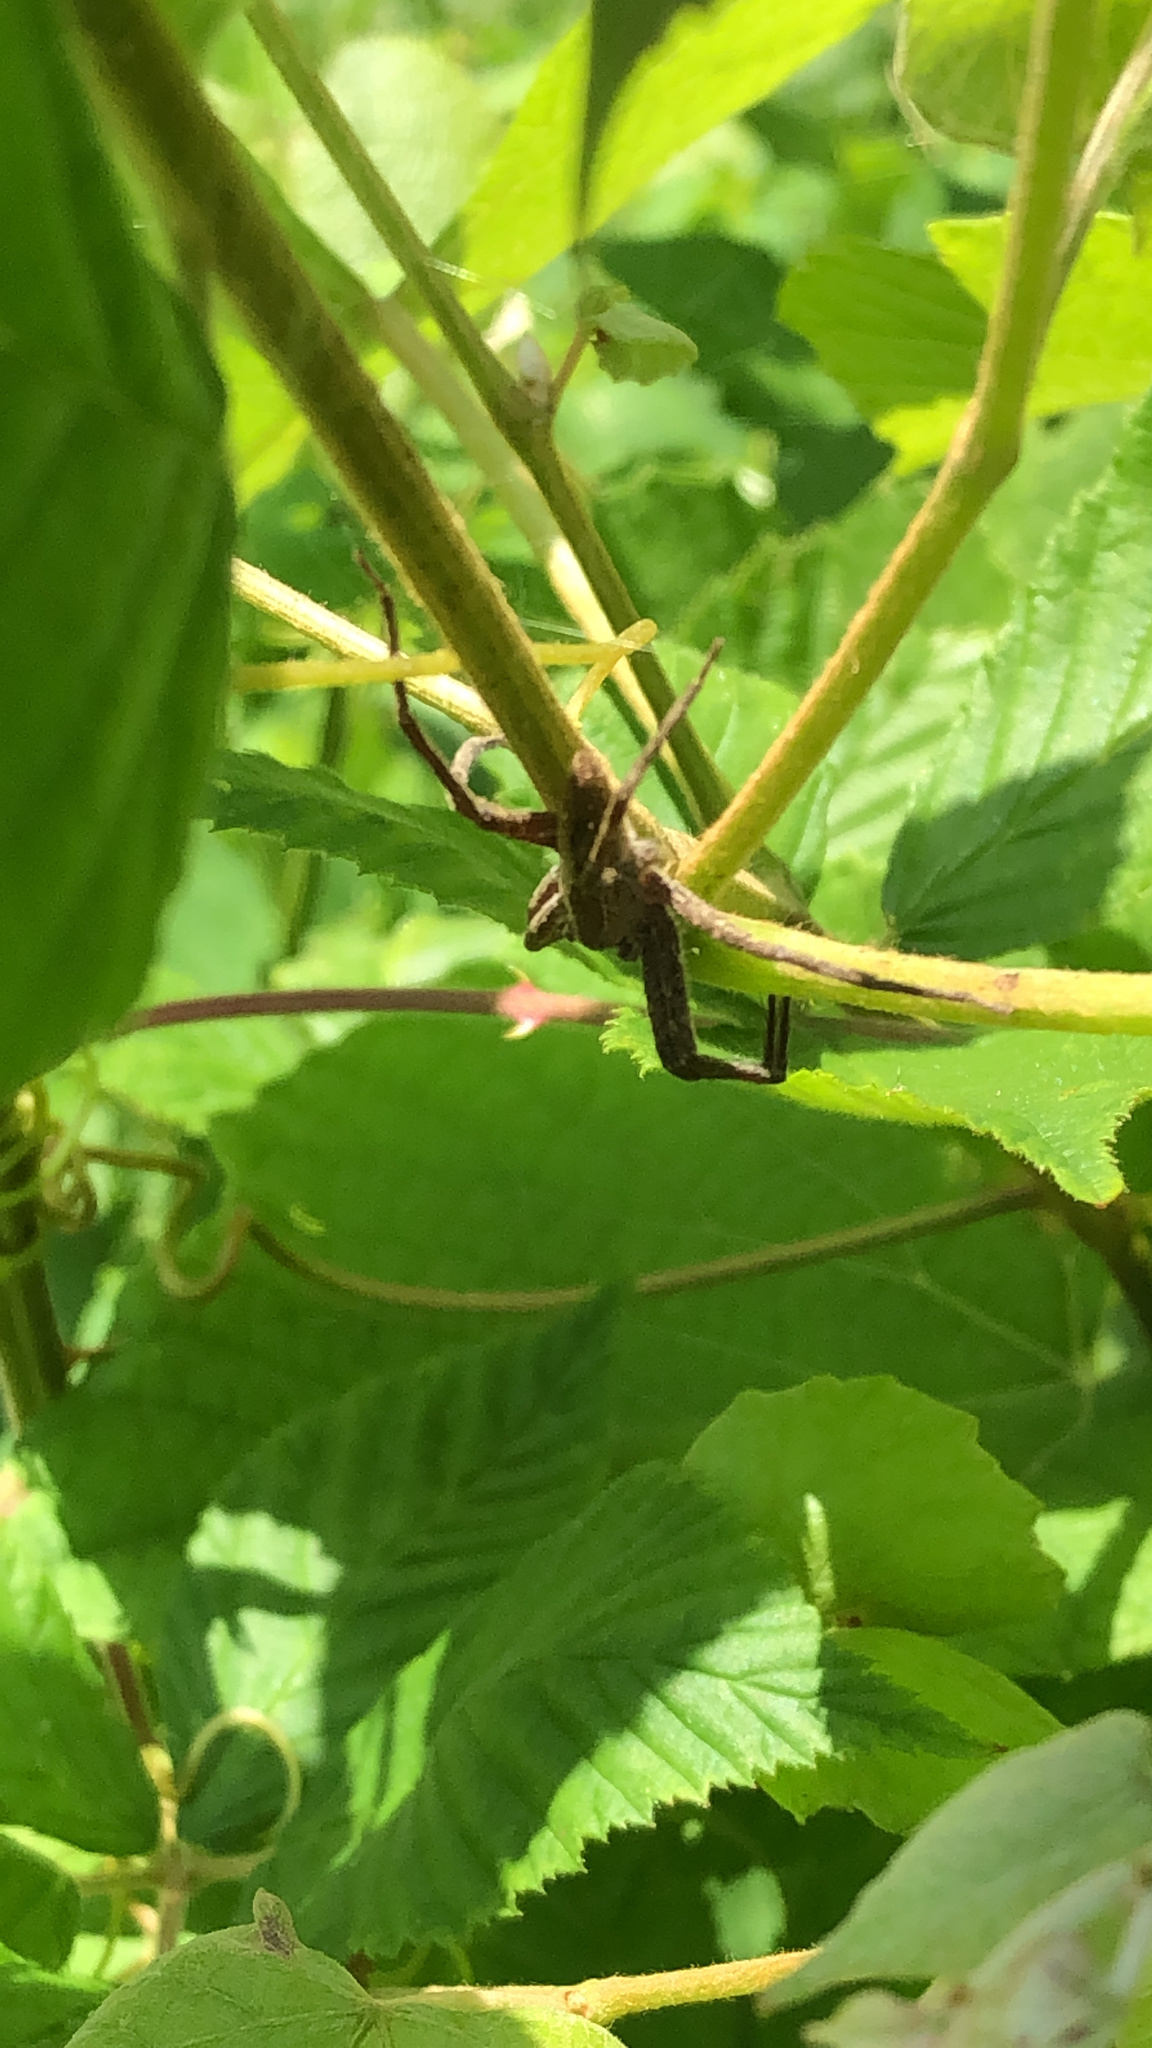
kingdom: Animalia
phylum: Arthropoda
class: Arachnida
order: Araneae
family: Pisauridae
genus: Pisaurina
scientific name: Pisaurina mira
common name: American nursery web spider
